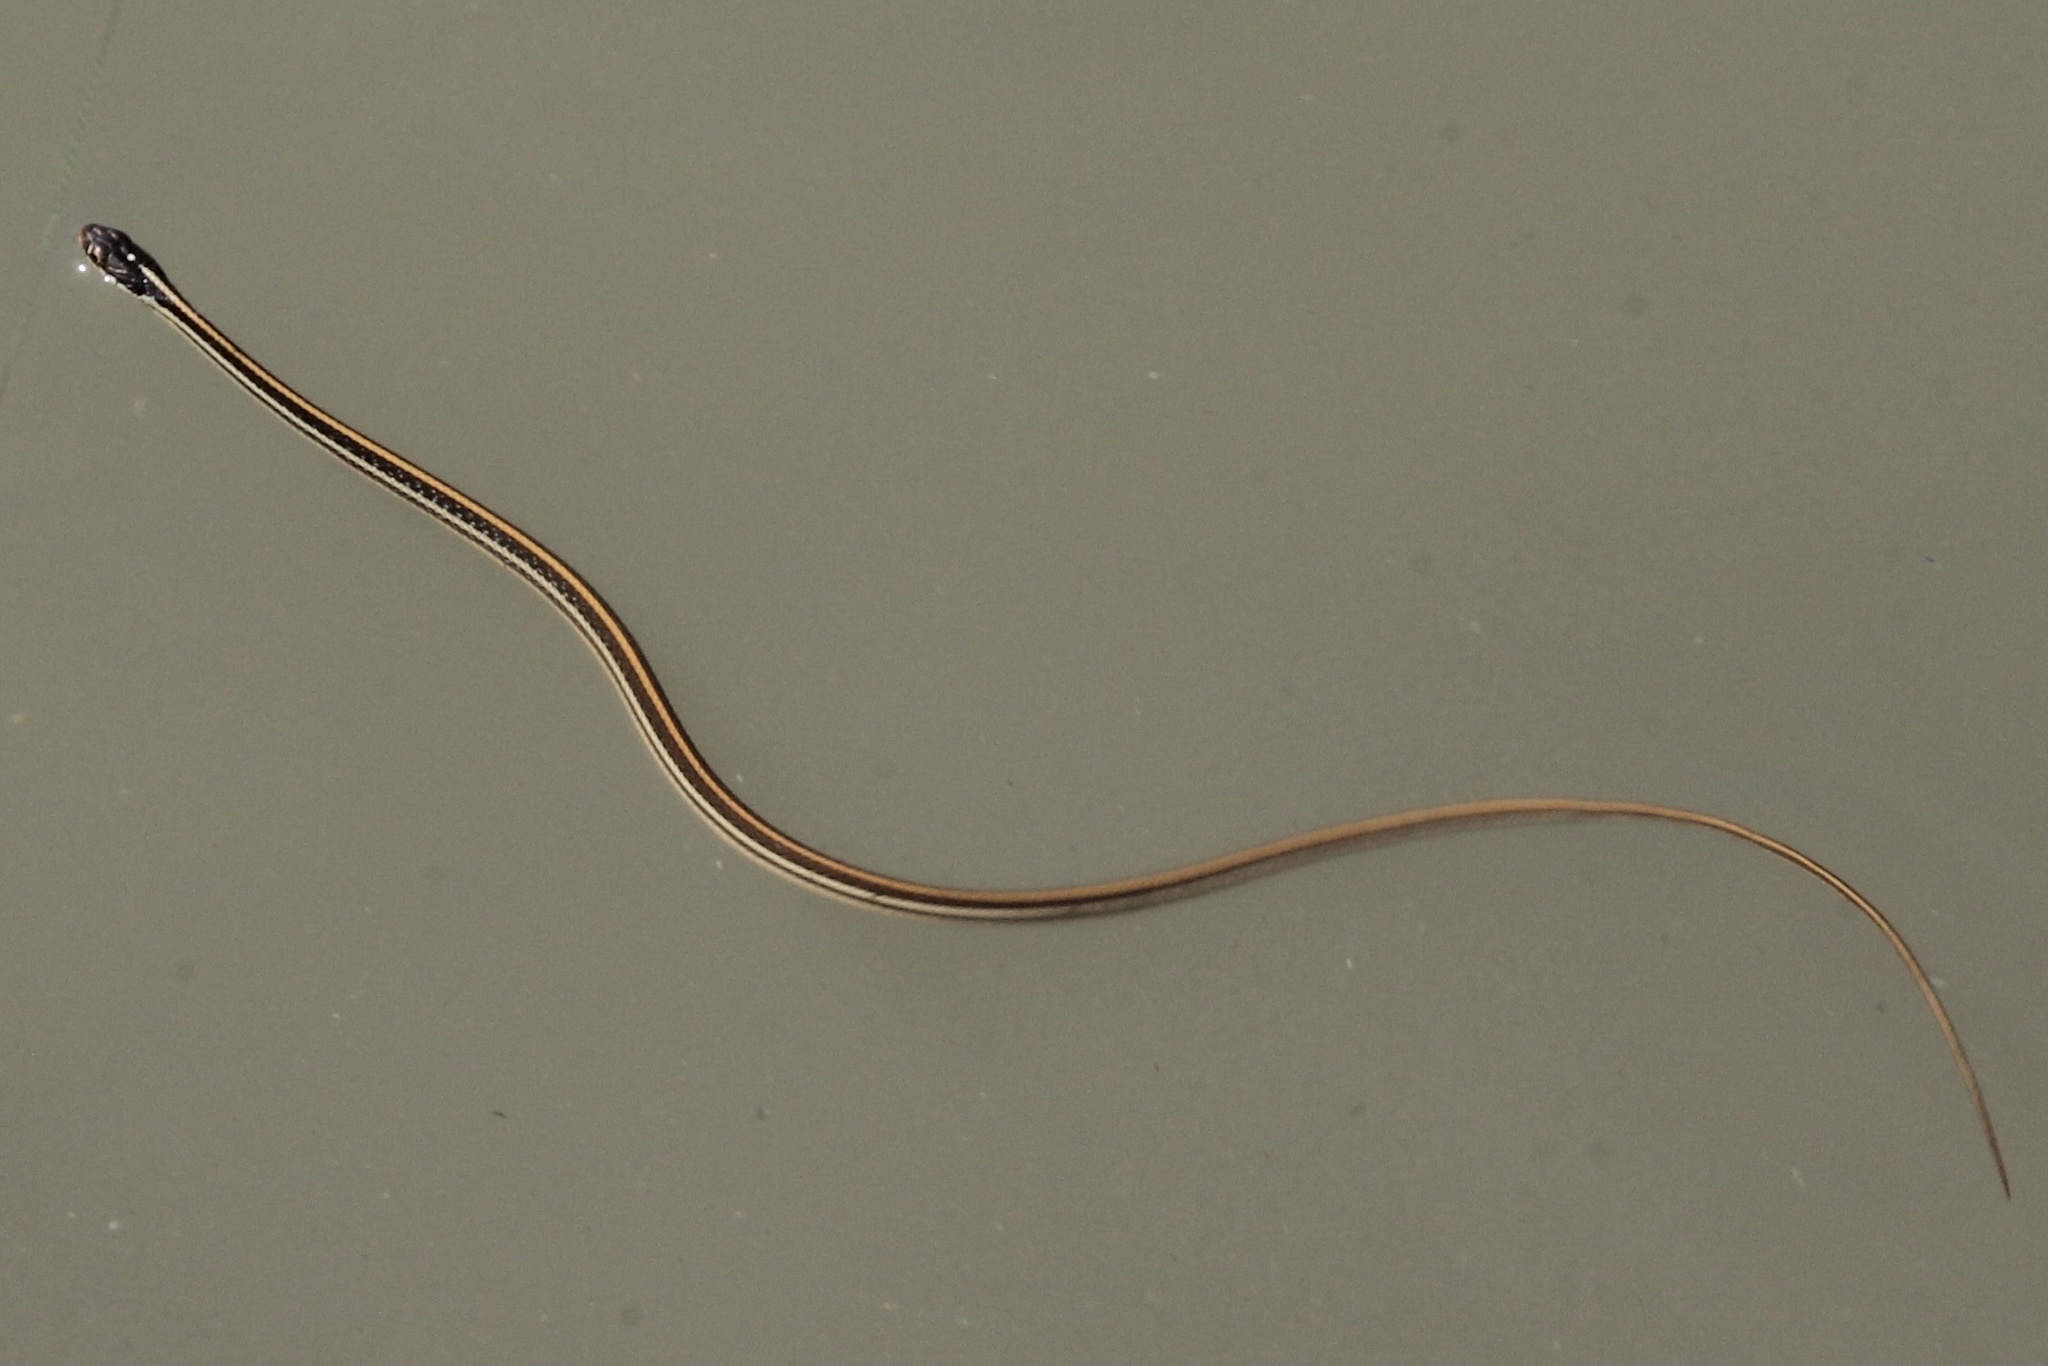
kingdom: Animalia
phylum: Chordata
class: Squamata
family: Colubridae
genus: Thamnophis
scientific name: Thamnophis proximus
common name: Western ribbon snake
